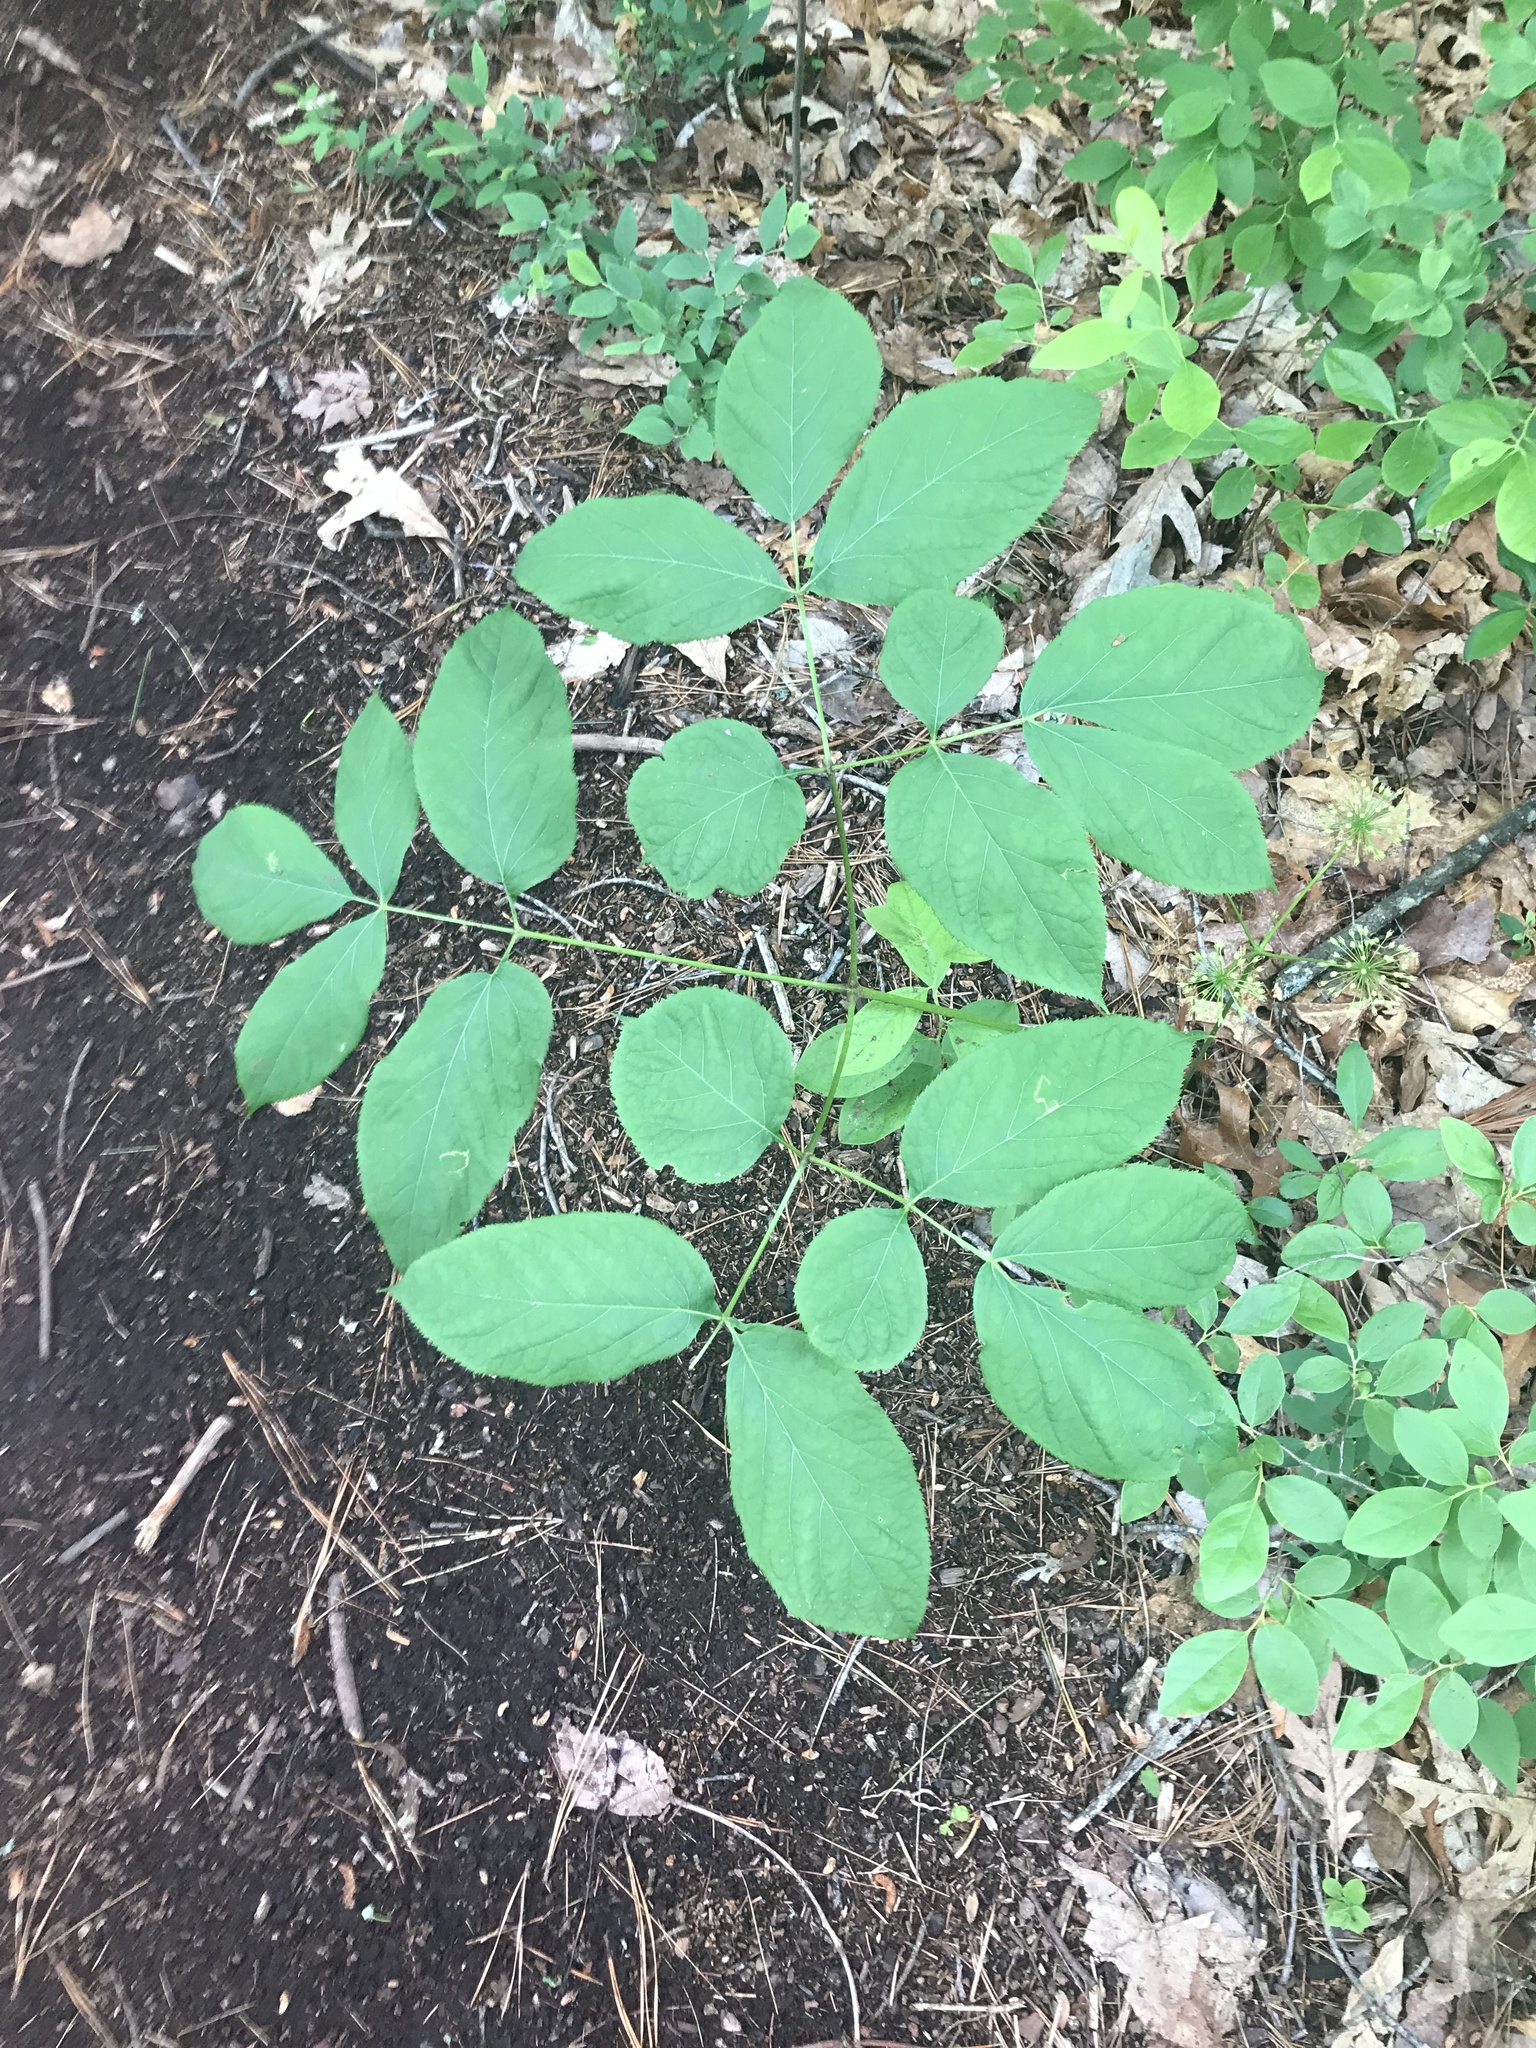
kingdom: Plantae
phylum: Tracheophyta
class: Magnoliopsida
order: Apiales
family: Araliaceae
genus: Aralia
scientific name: Aralia nudicaulis
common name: Wild sarsaparilla
